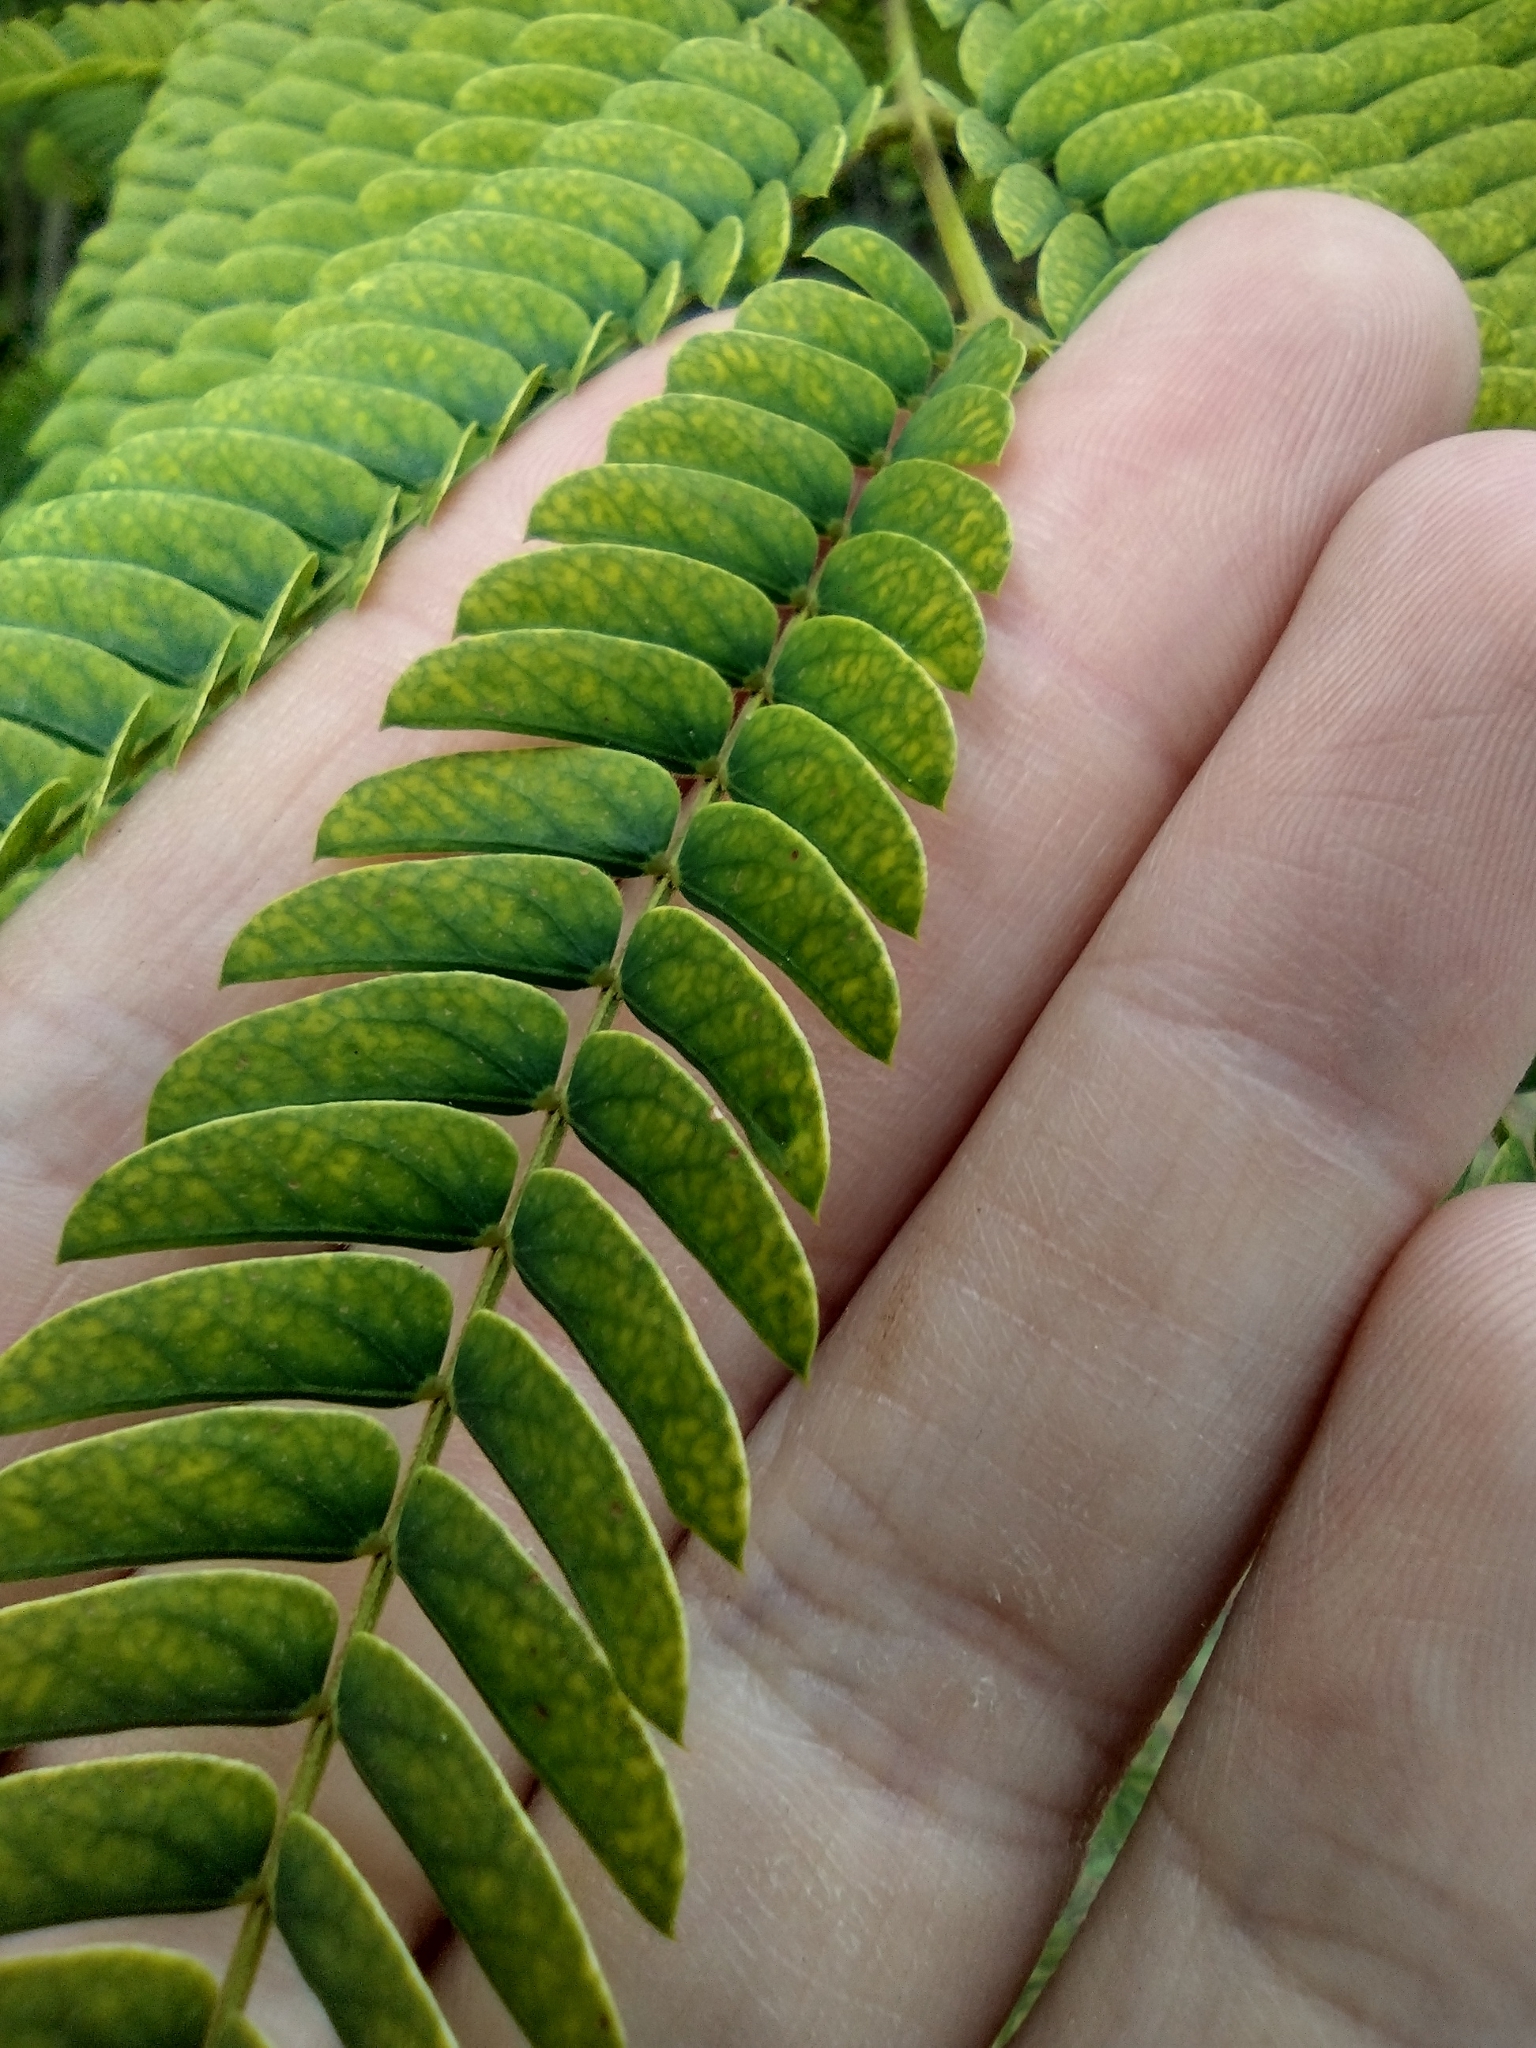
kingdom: Plantae
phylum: Tracheophyta
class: Magnoliopsida
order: Fabales
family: Fabaceae
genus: Albizia
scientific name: Albizia julibrissin
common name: Silktree
